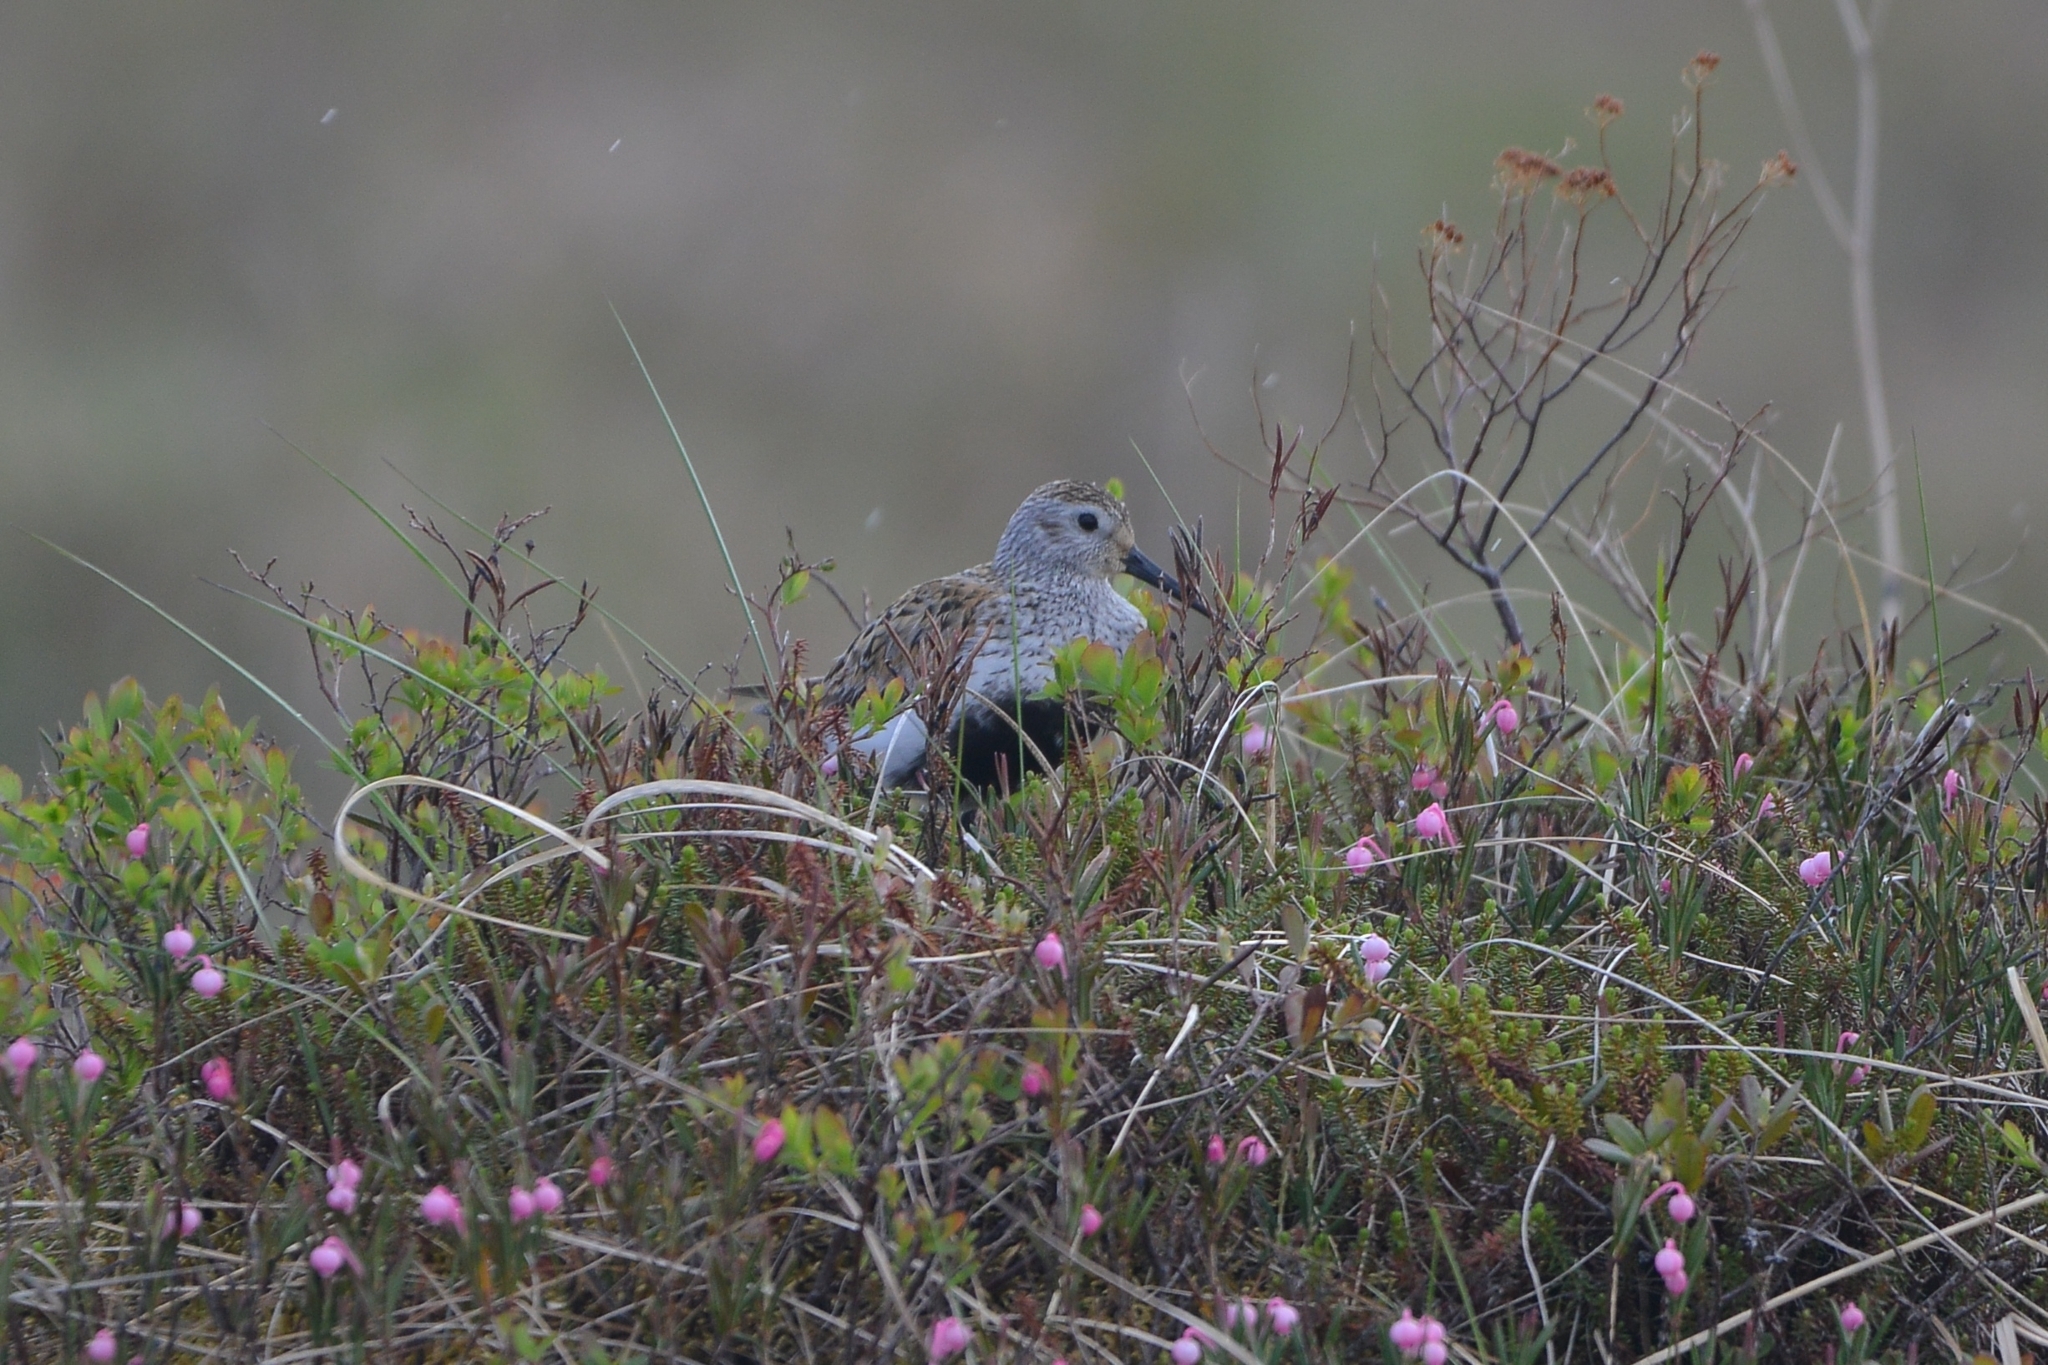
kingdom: Animalia
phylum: Chordata
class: Aves
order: Charadriiformes
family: Scolopacidae
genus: Calidris
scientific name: Calidris alpina
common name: Dunlin
